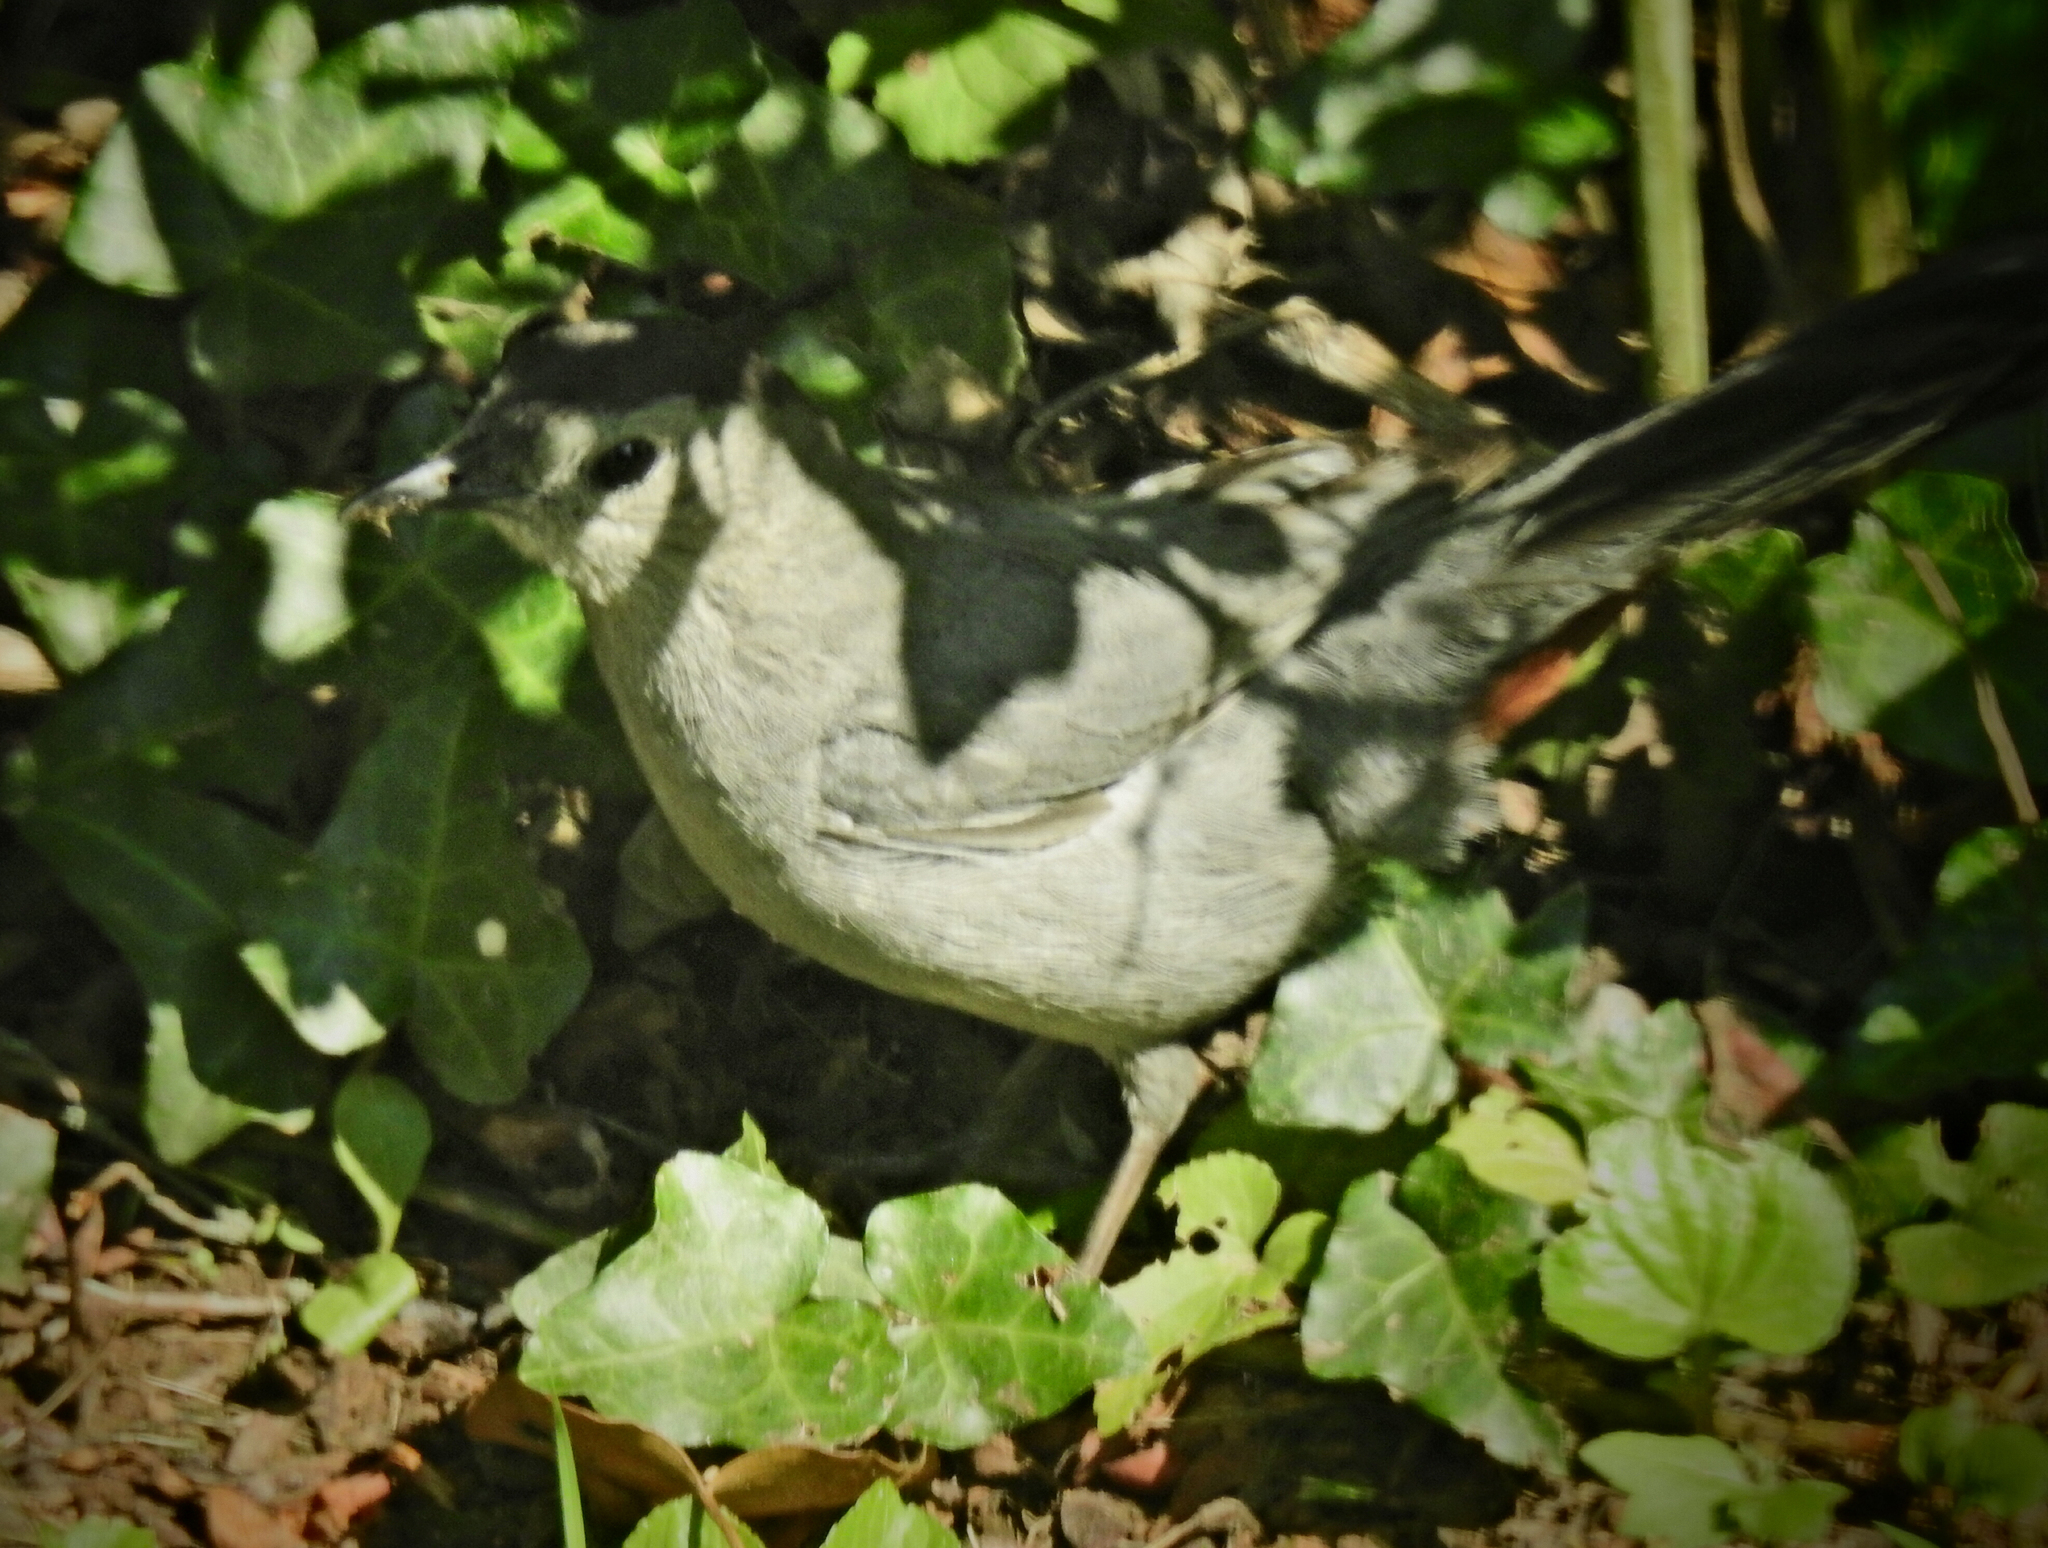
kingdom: Animalia
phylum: Chordata
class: Aves
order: Passeriformes
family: Mimidae
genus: Dumetella
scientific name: Dumetella carolinensis
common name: Gray catbird
